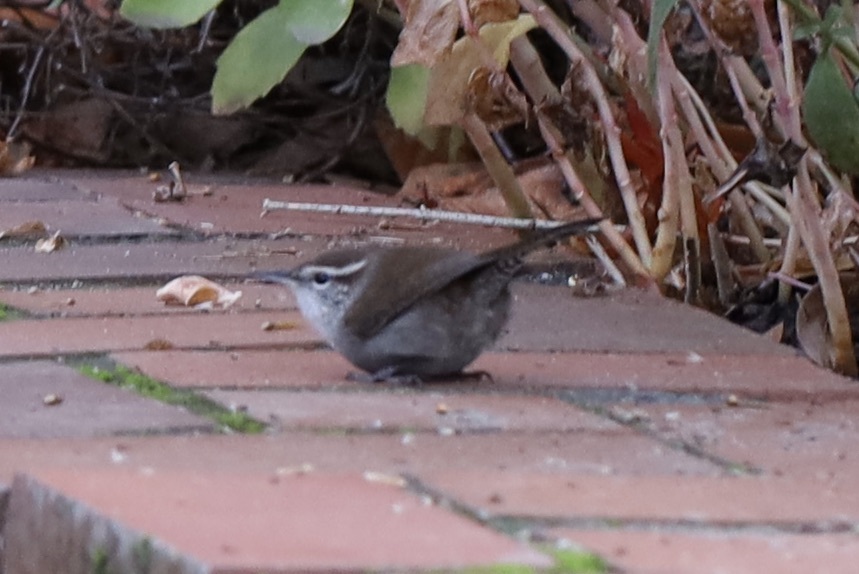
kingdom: Animalia
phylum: Chordata
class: Aves
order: Passeriformes
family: Troglodytidae
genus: Thryomanes
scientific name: Thryomanes bewickii
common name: Bewick's wren
